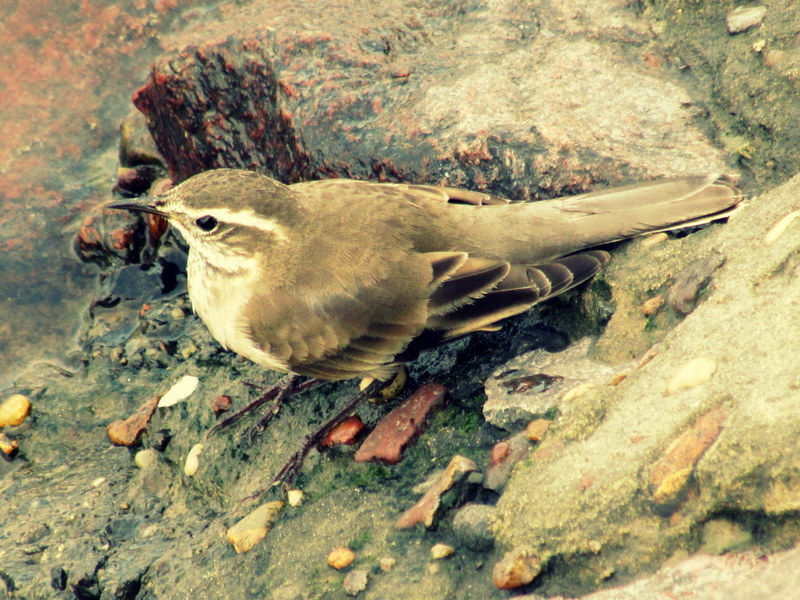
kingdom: Animalia
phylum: Chordata
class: Aves
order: Passeriformes
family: Furnariidae
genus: Cinclodes
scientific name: Cinclodes fuscus
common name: Buff-winged cinclodes
